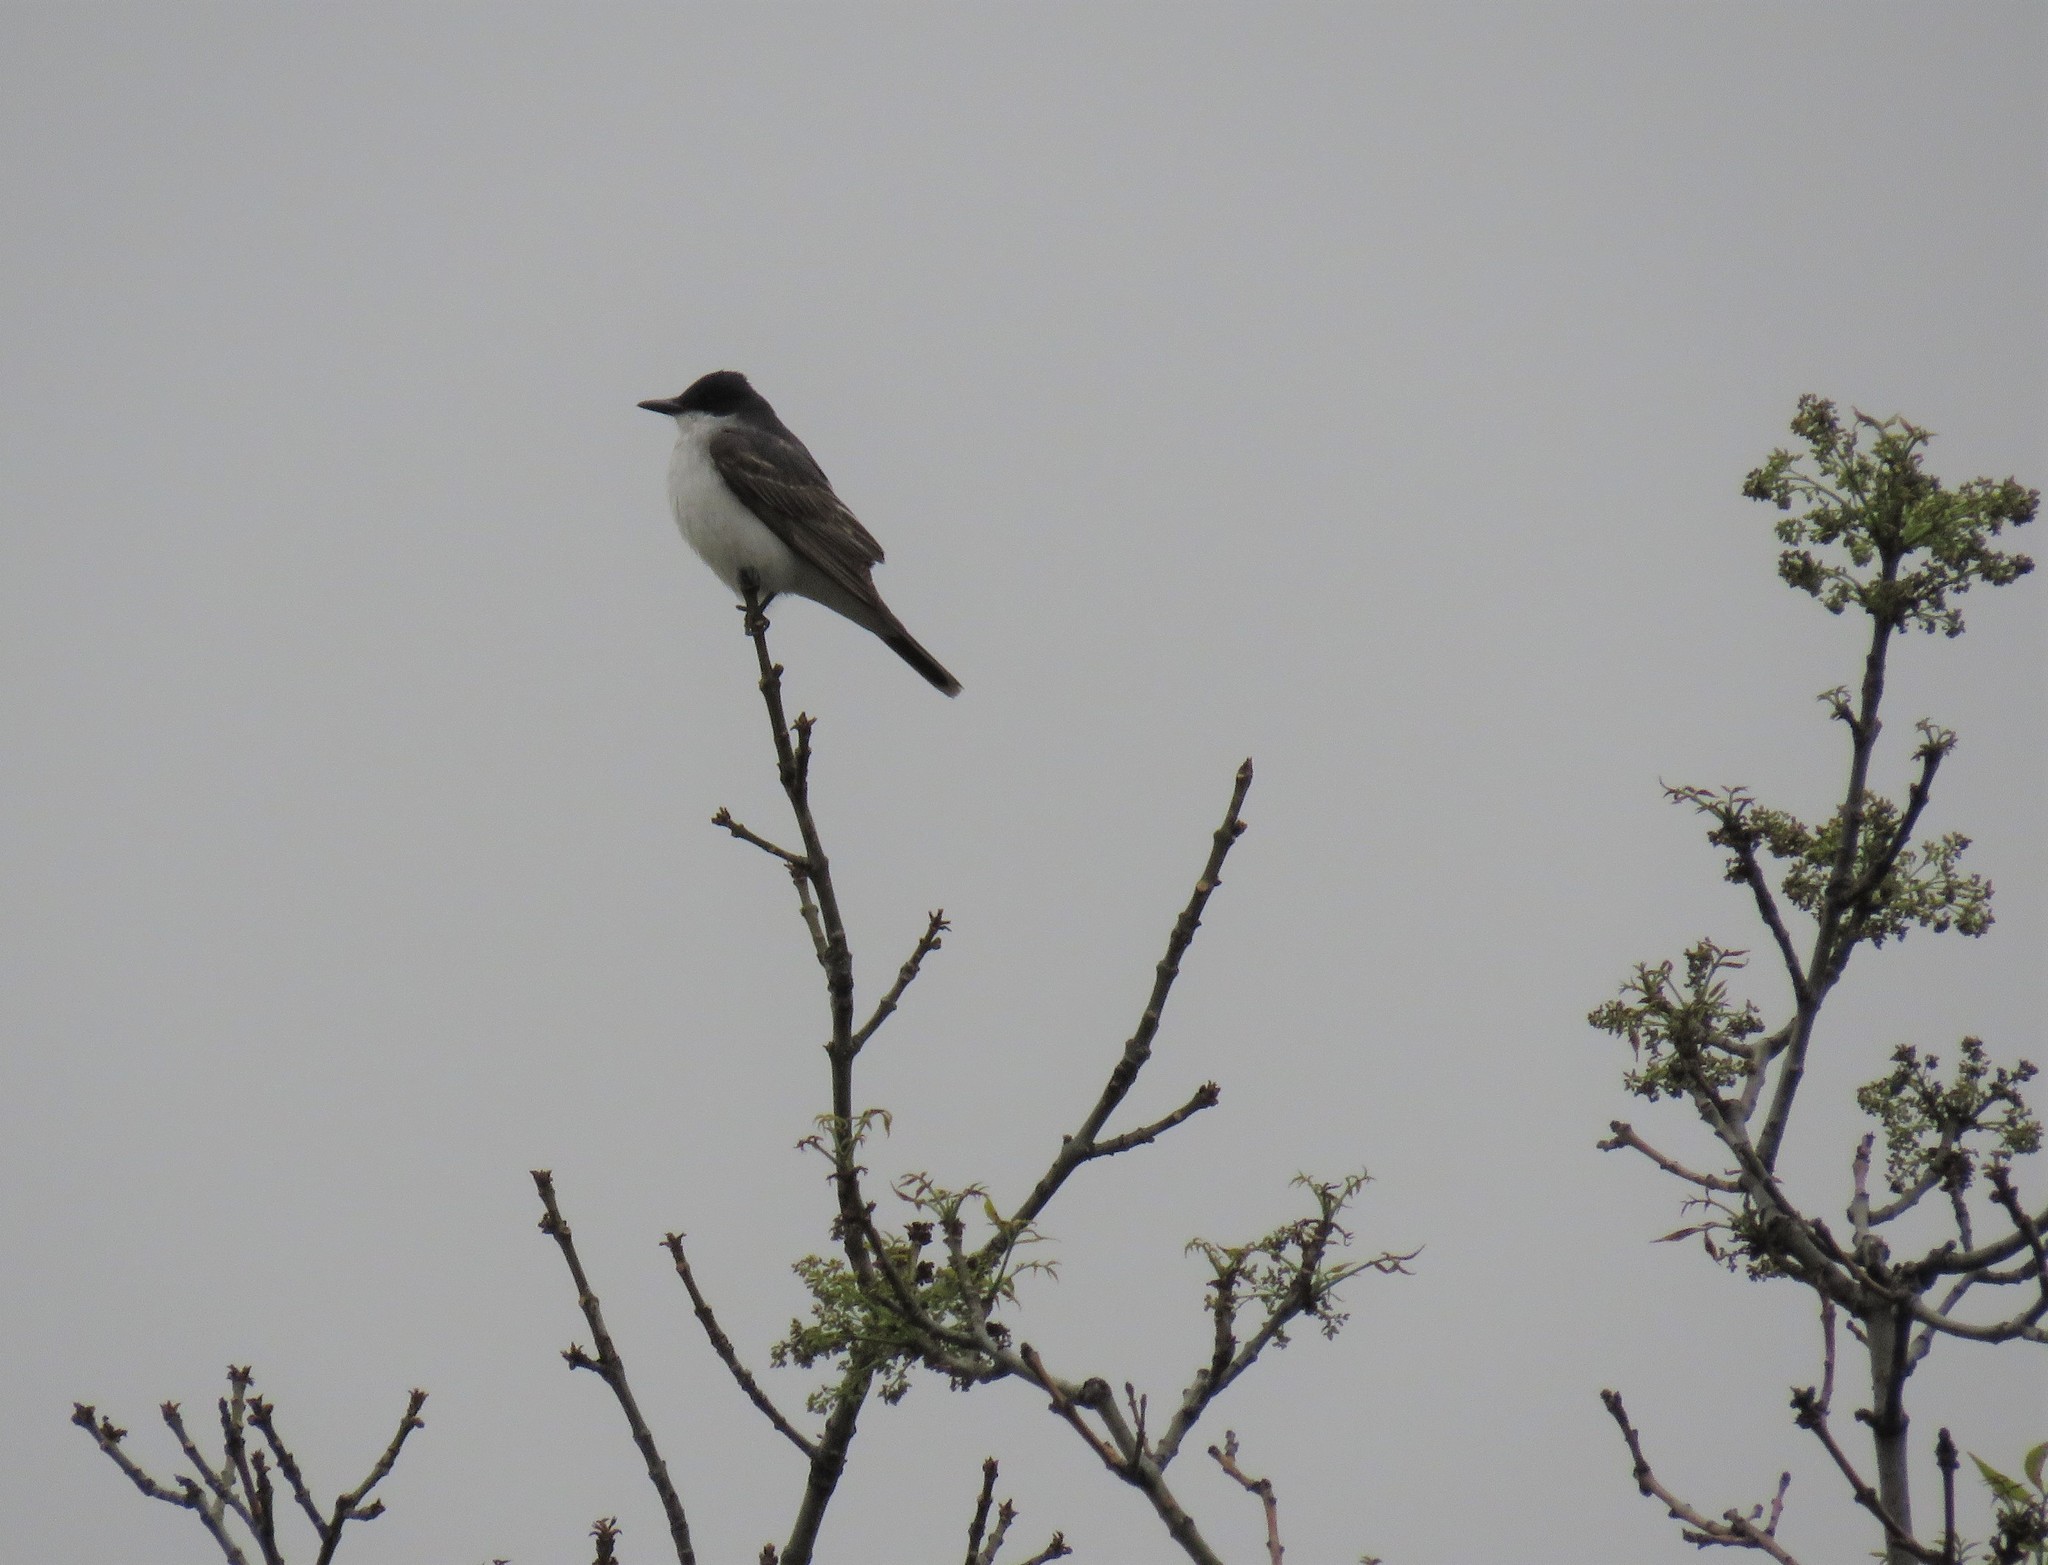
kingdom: Animalia
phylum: Chordata
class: Aves
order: Passeriformes
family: Tyrannidae
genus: Tyrannus
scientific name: Tyrannus tyrannus
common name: Eastern kingbird
